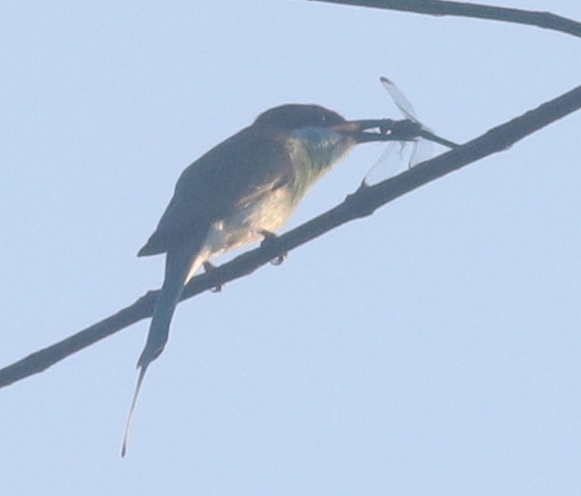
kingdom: Animalia
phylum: Chordata
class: Aves
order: Coraciiformes
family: Meropidae
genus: Merops
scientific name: Merops viridis
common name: Blue-throated bee-eater
